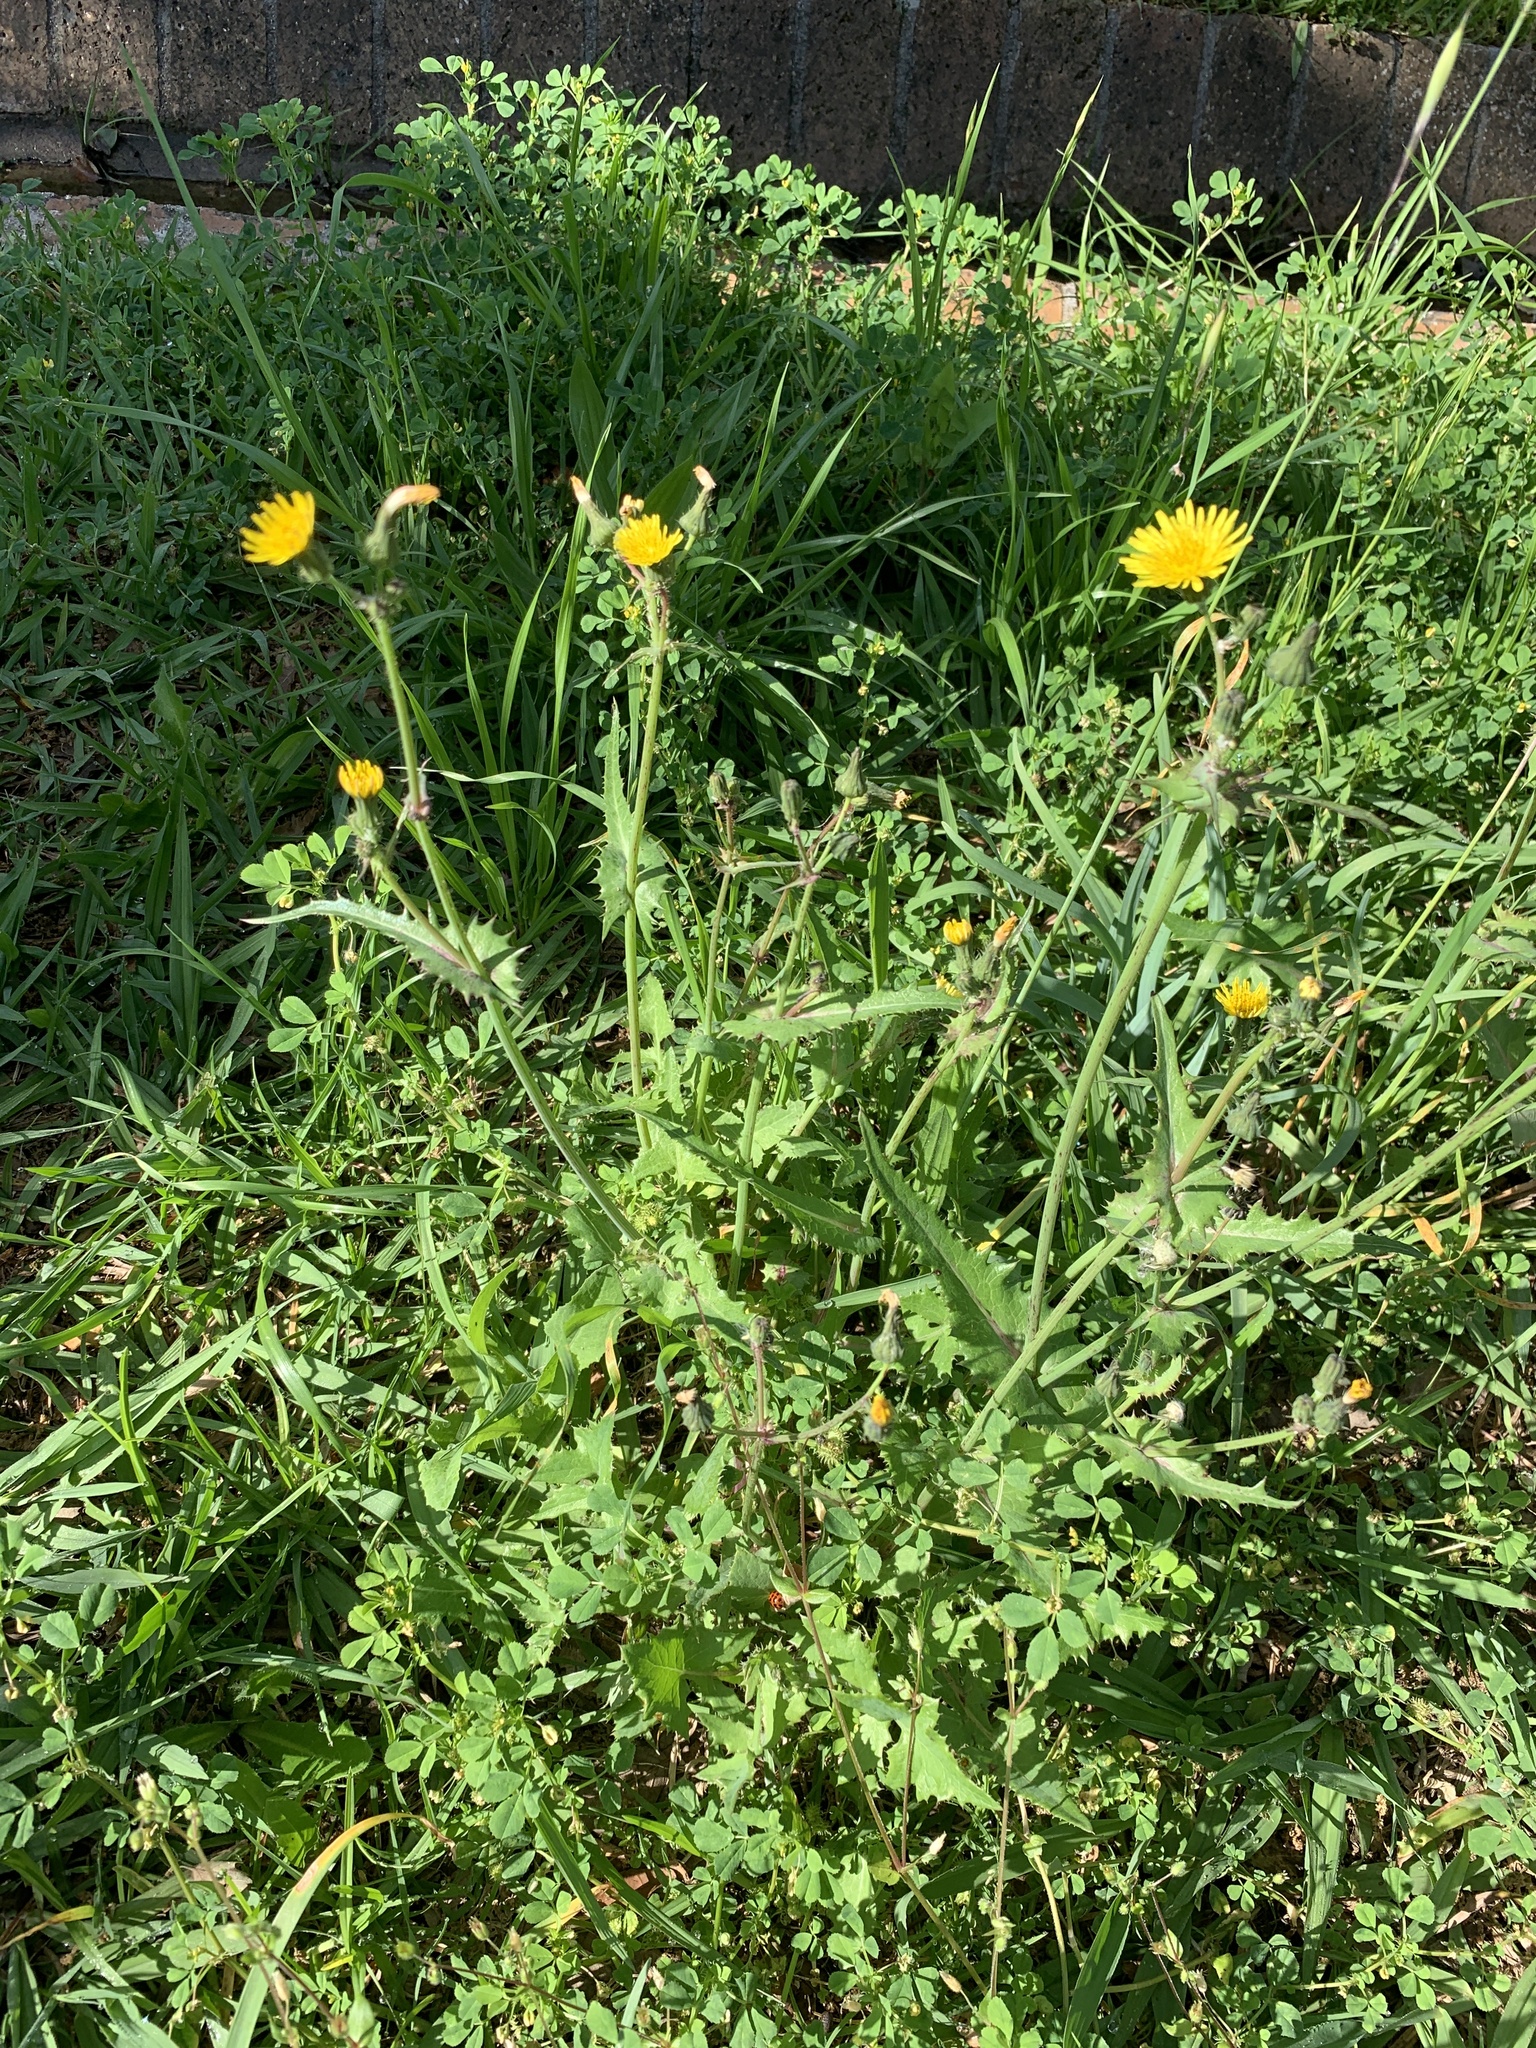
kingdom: Plantae
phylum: Tracheophyta
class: Magnoliopsida
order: Asterales
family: Asteraceae
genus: Sonchus
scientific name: Sonchus oleraceus
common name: Common sowthistle
